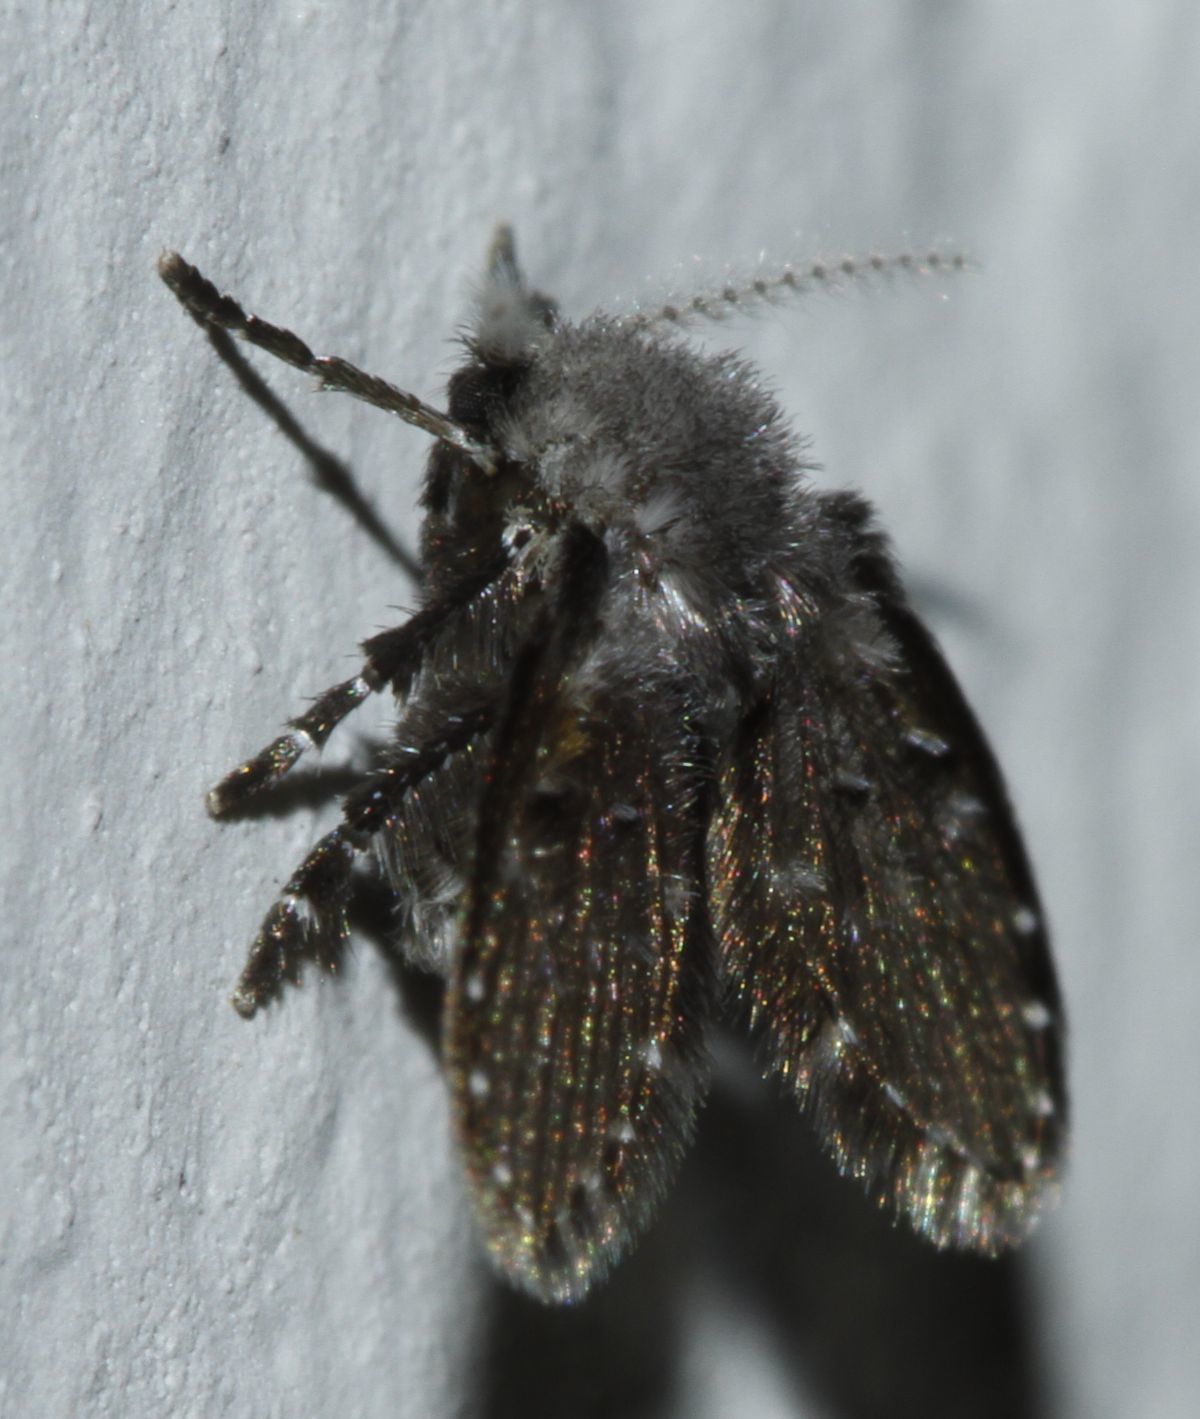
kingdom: Animalia
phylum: Arthropoda
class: Insecta
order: Diptera
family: Psychodidae
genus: Clogmia
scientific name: Clogmia albipunctatus
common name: White-spotted moth fly
